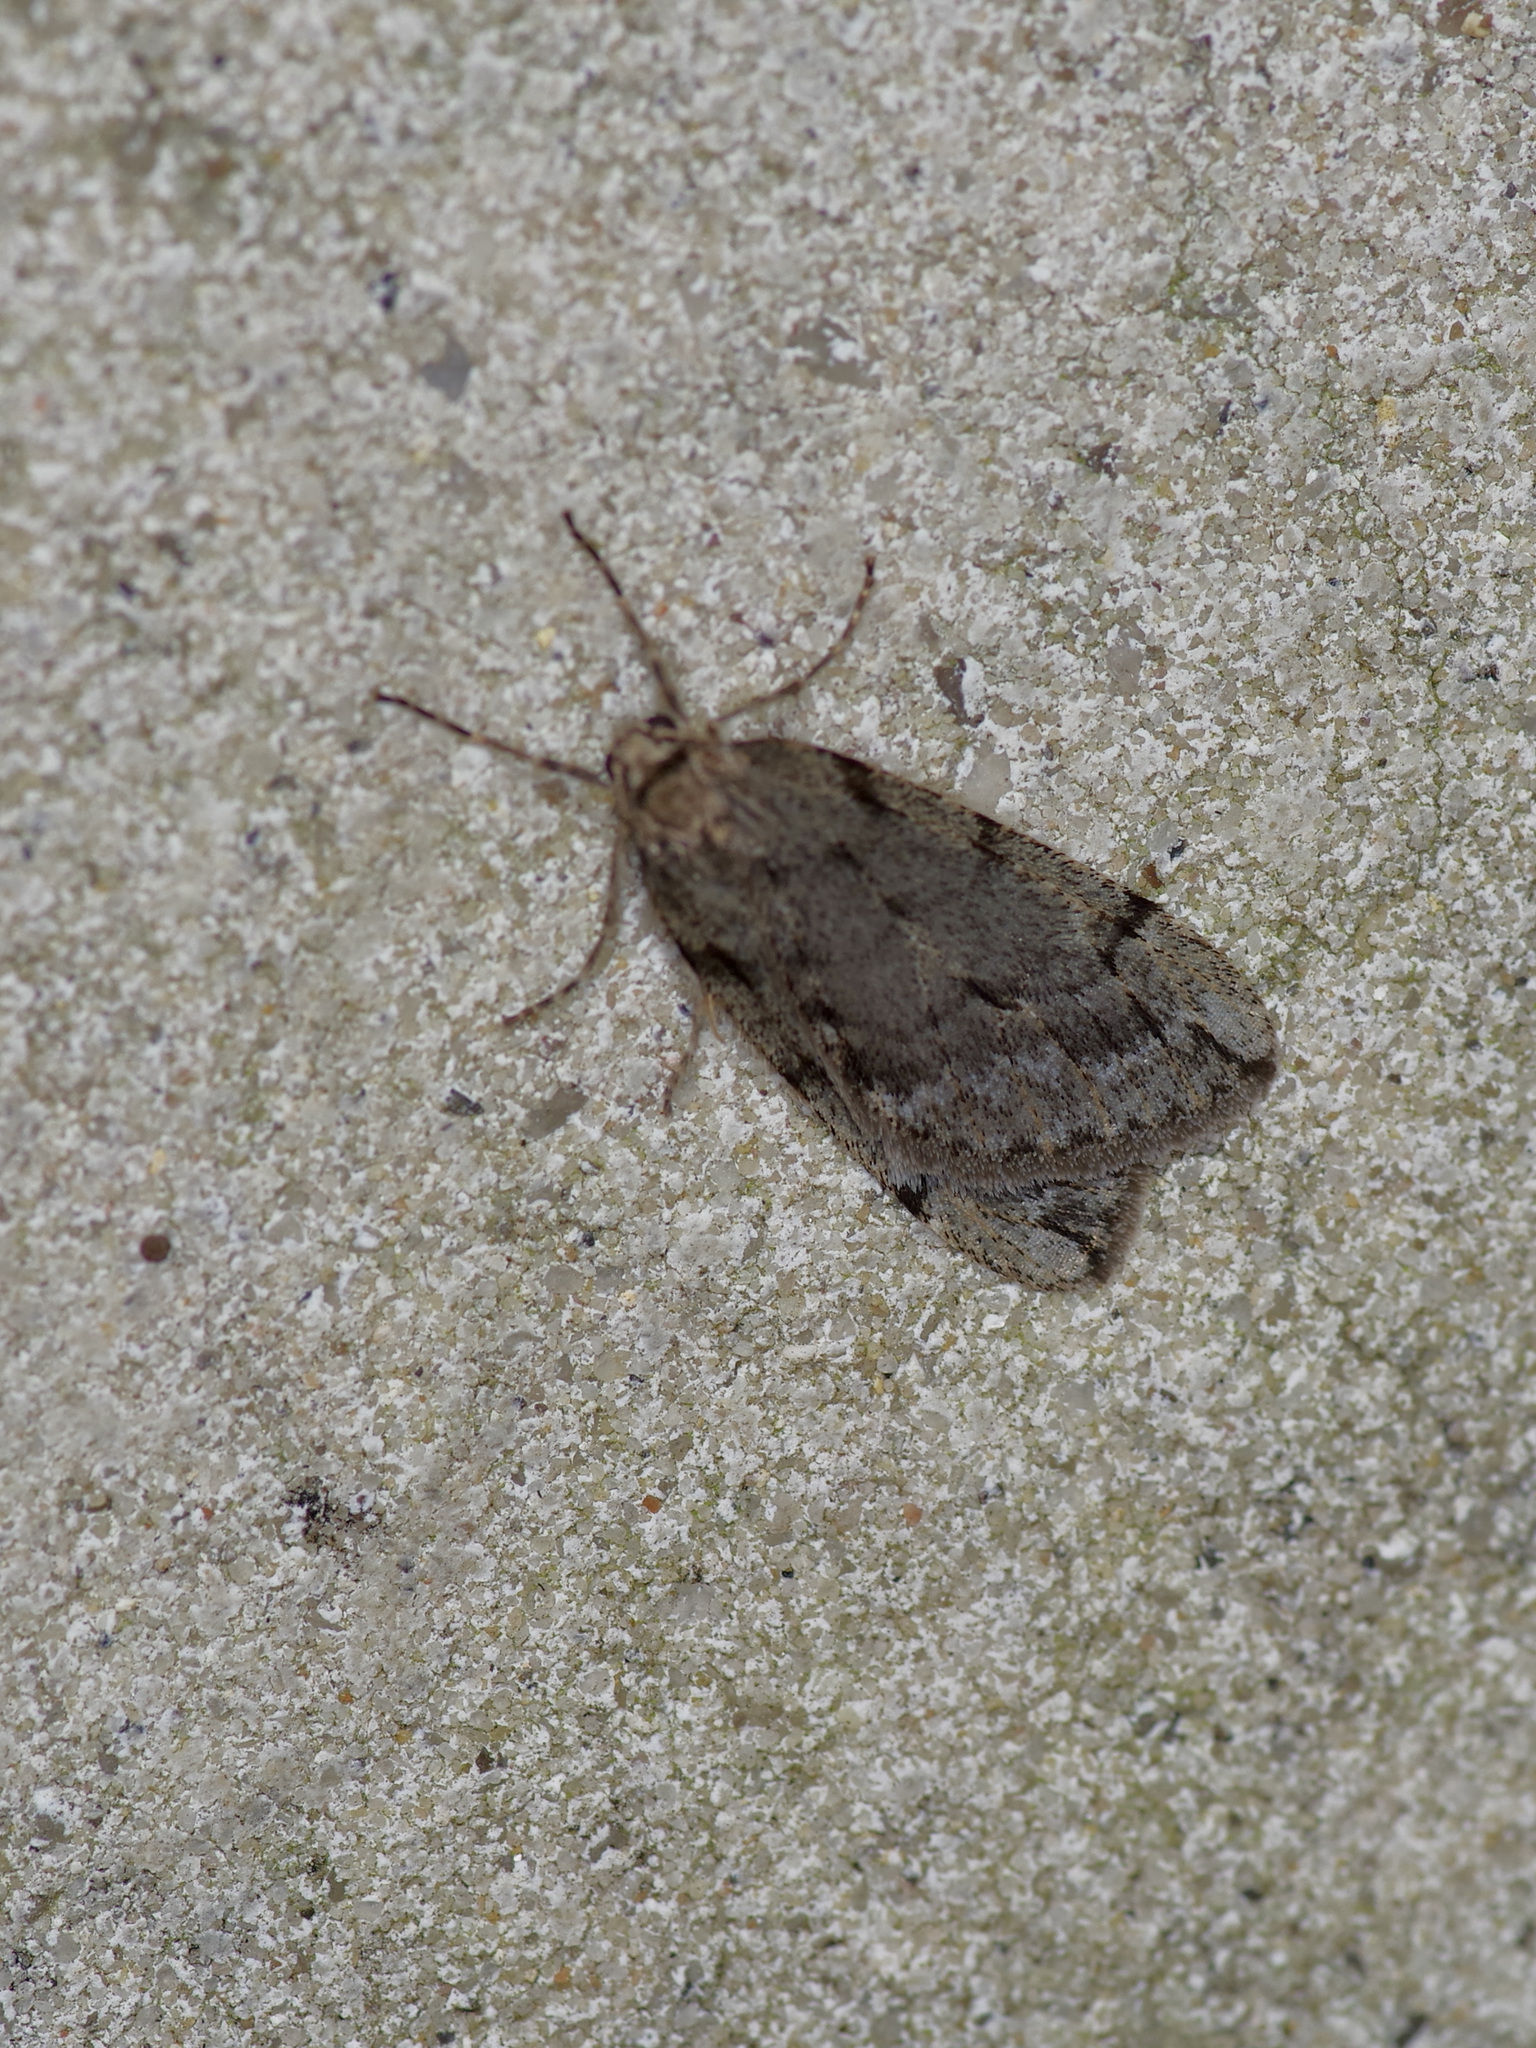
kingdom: Animalia
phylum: Arthropoda
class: Insecta
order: Lepidoptera
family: Geometridae
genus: Paleacrita
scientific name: Paleacrita vernata
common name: Spring cankerworm
